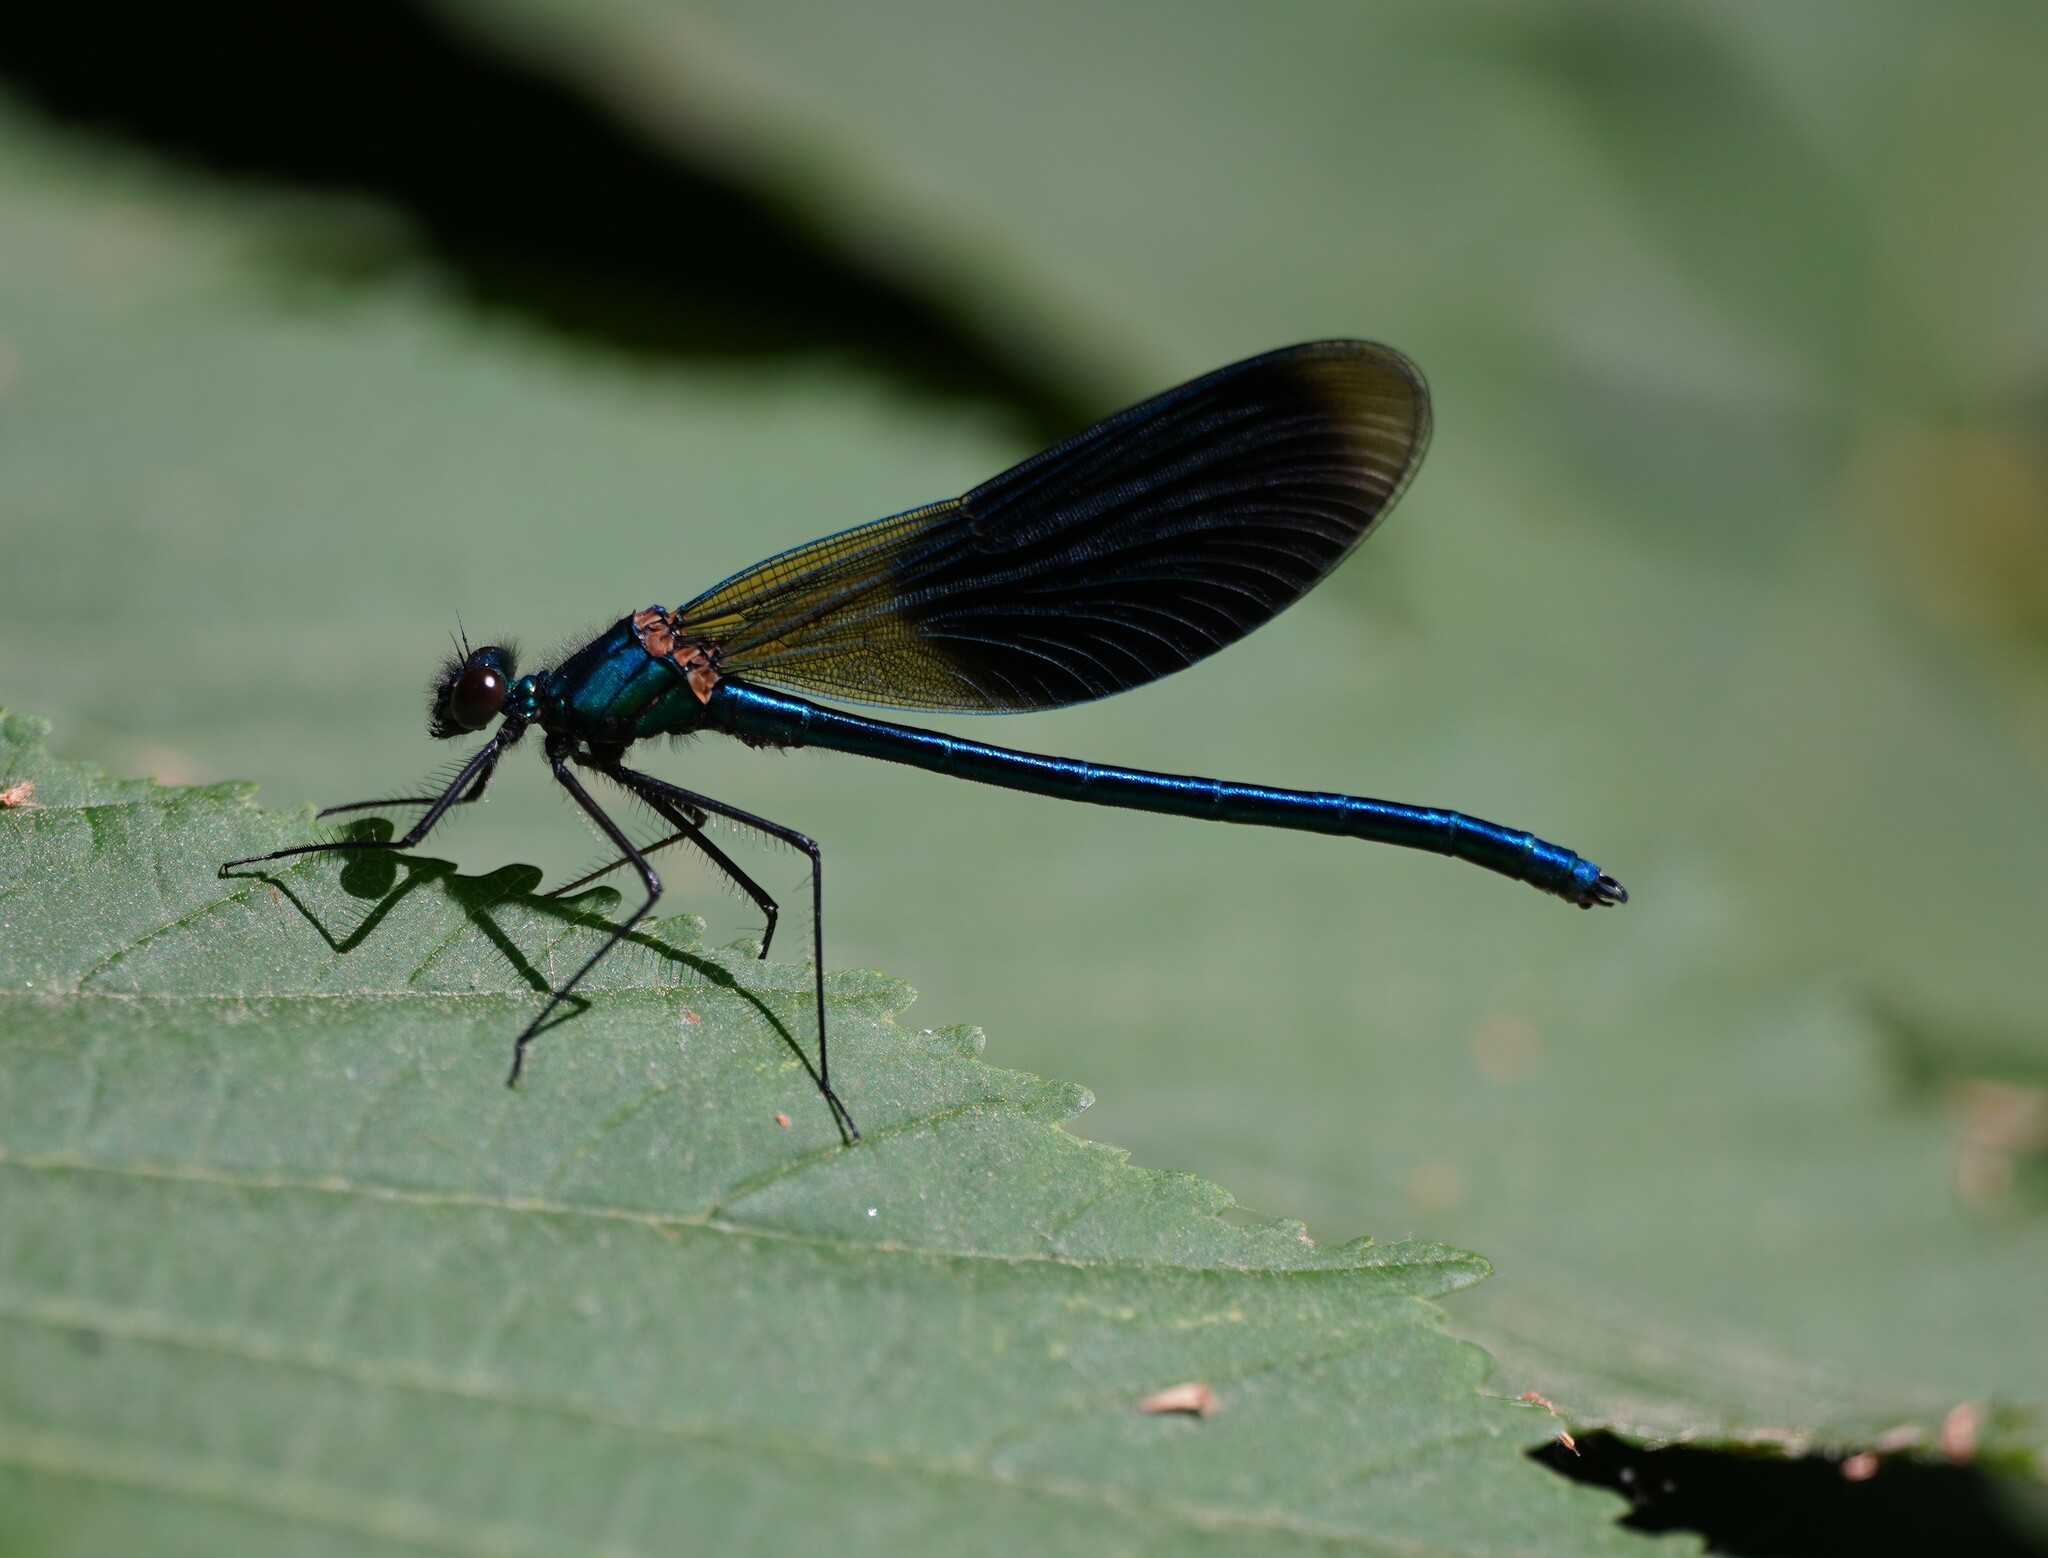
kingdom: Animalia
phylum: Arthropoda
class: Insecta
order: Odonata
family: Calopterygidae
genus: Calopteryx
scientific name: Calopteryx splendens
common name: Banded demoiselle
